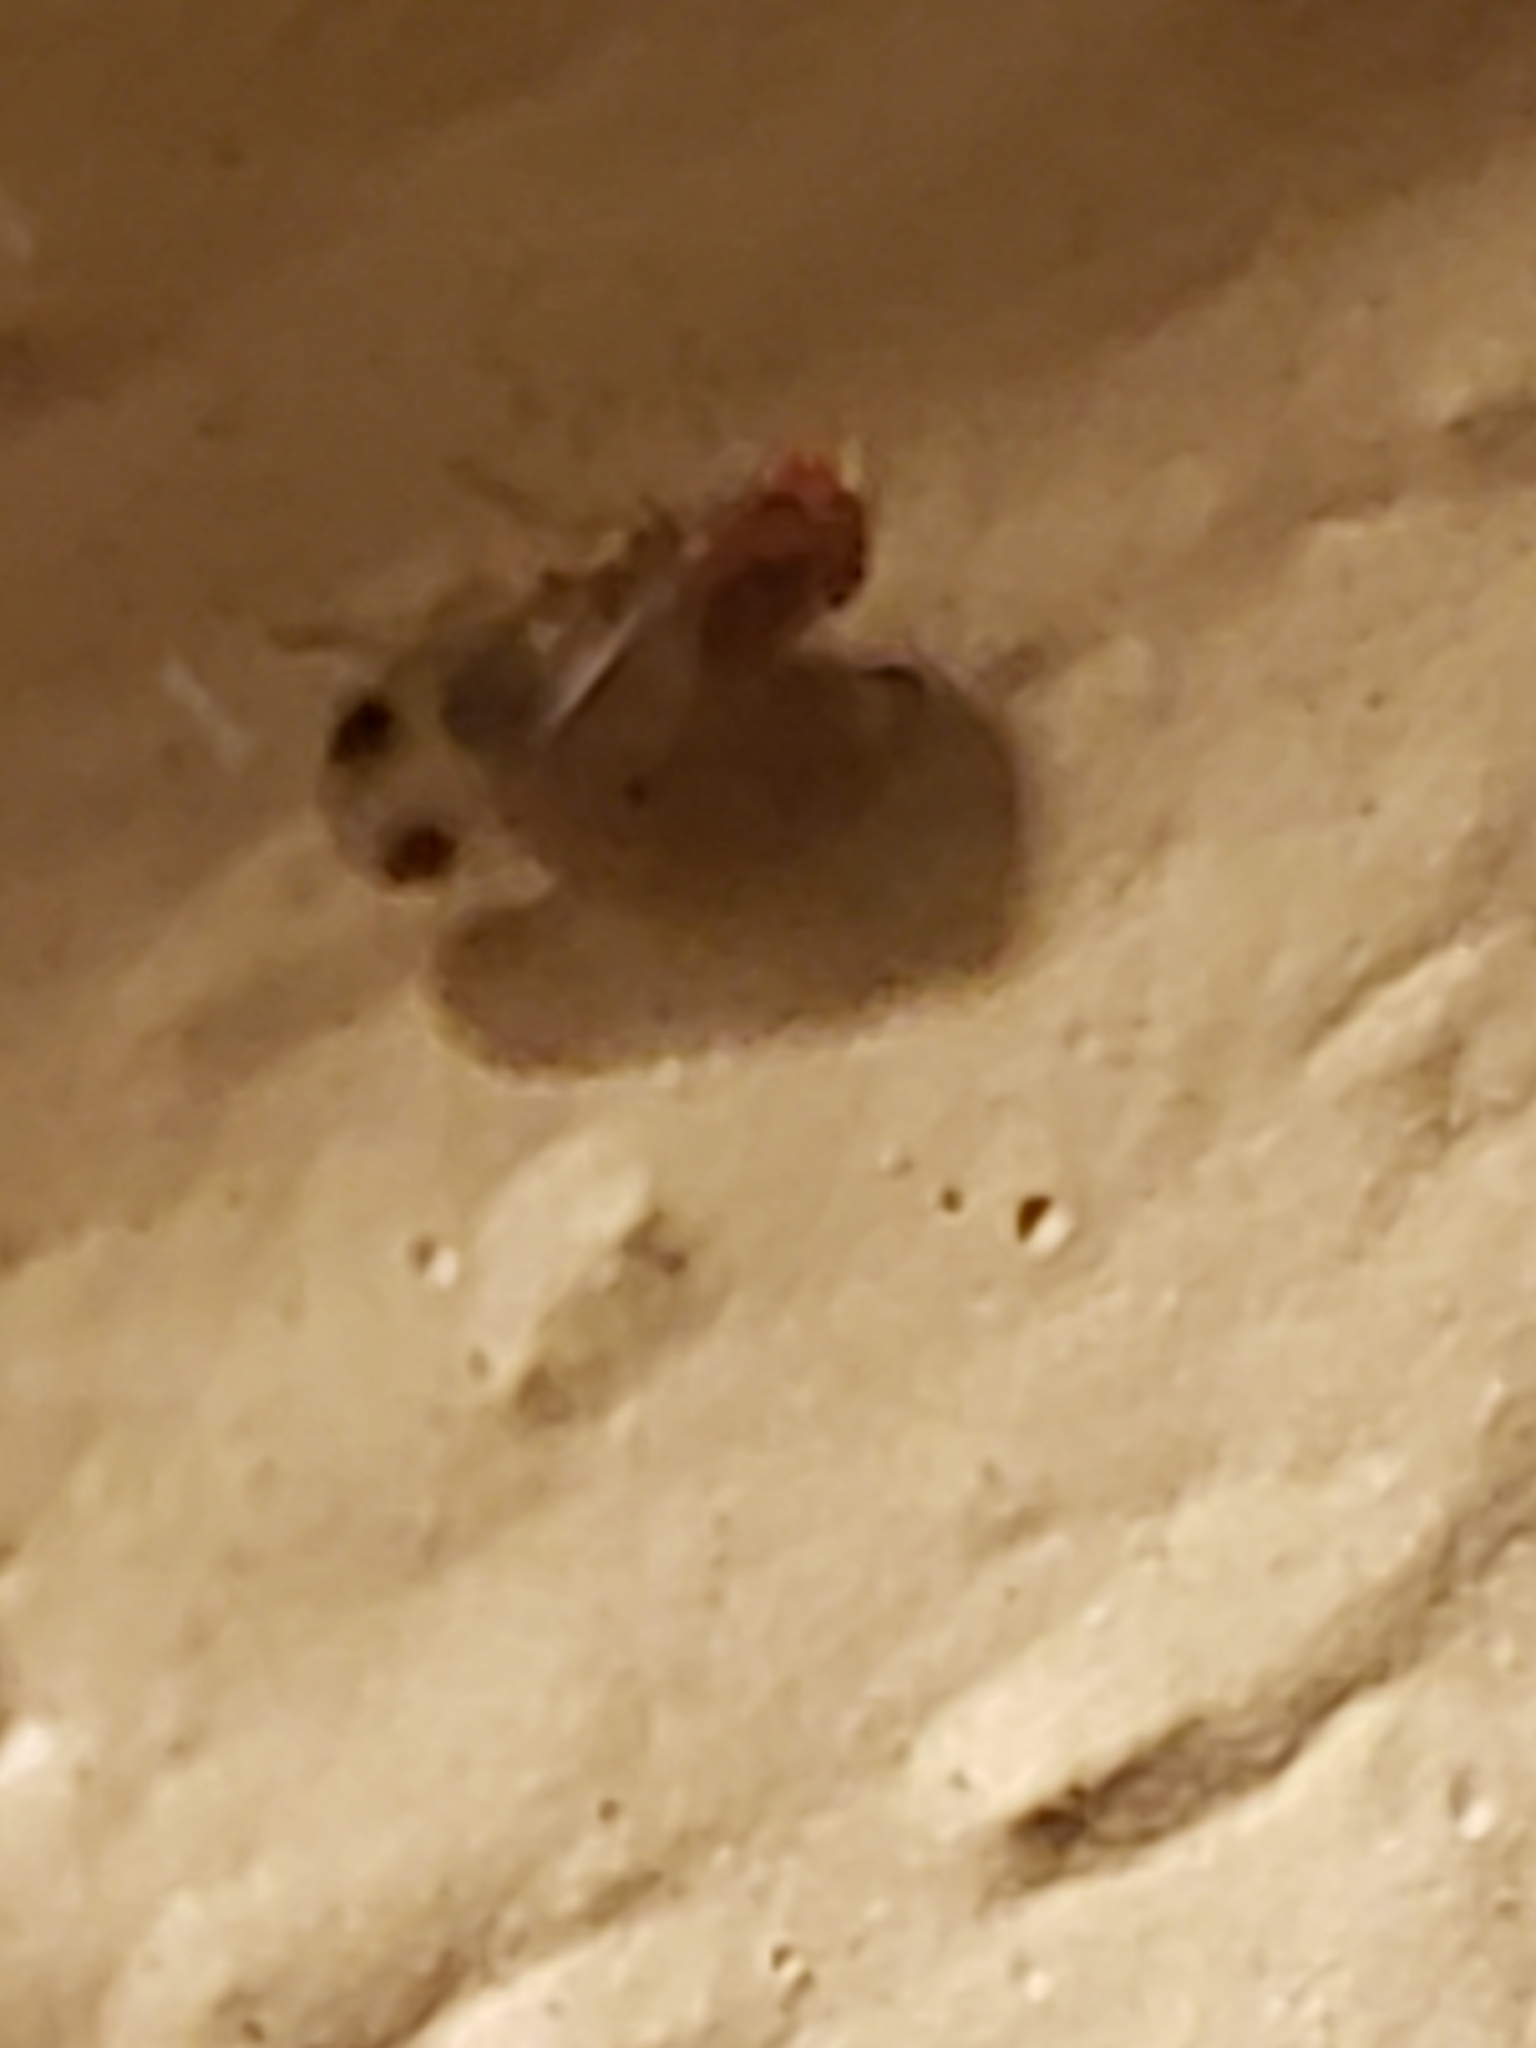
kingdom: Animalia
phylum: Arthropoda
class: Insecta
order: Diptera
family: Drosophilidae
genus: Drosophila
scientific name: Drosophila suzukii
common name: Spotted-wing drosophila
